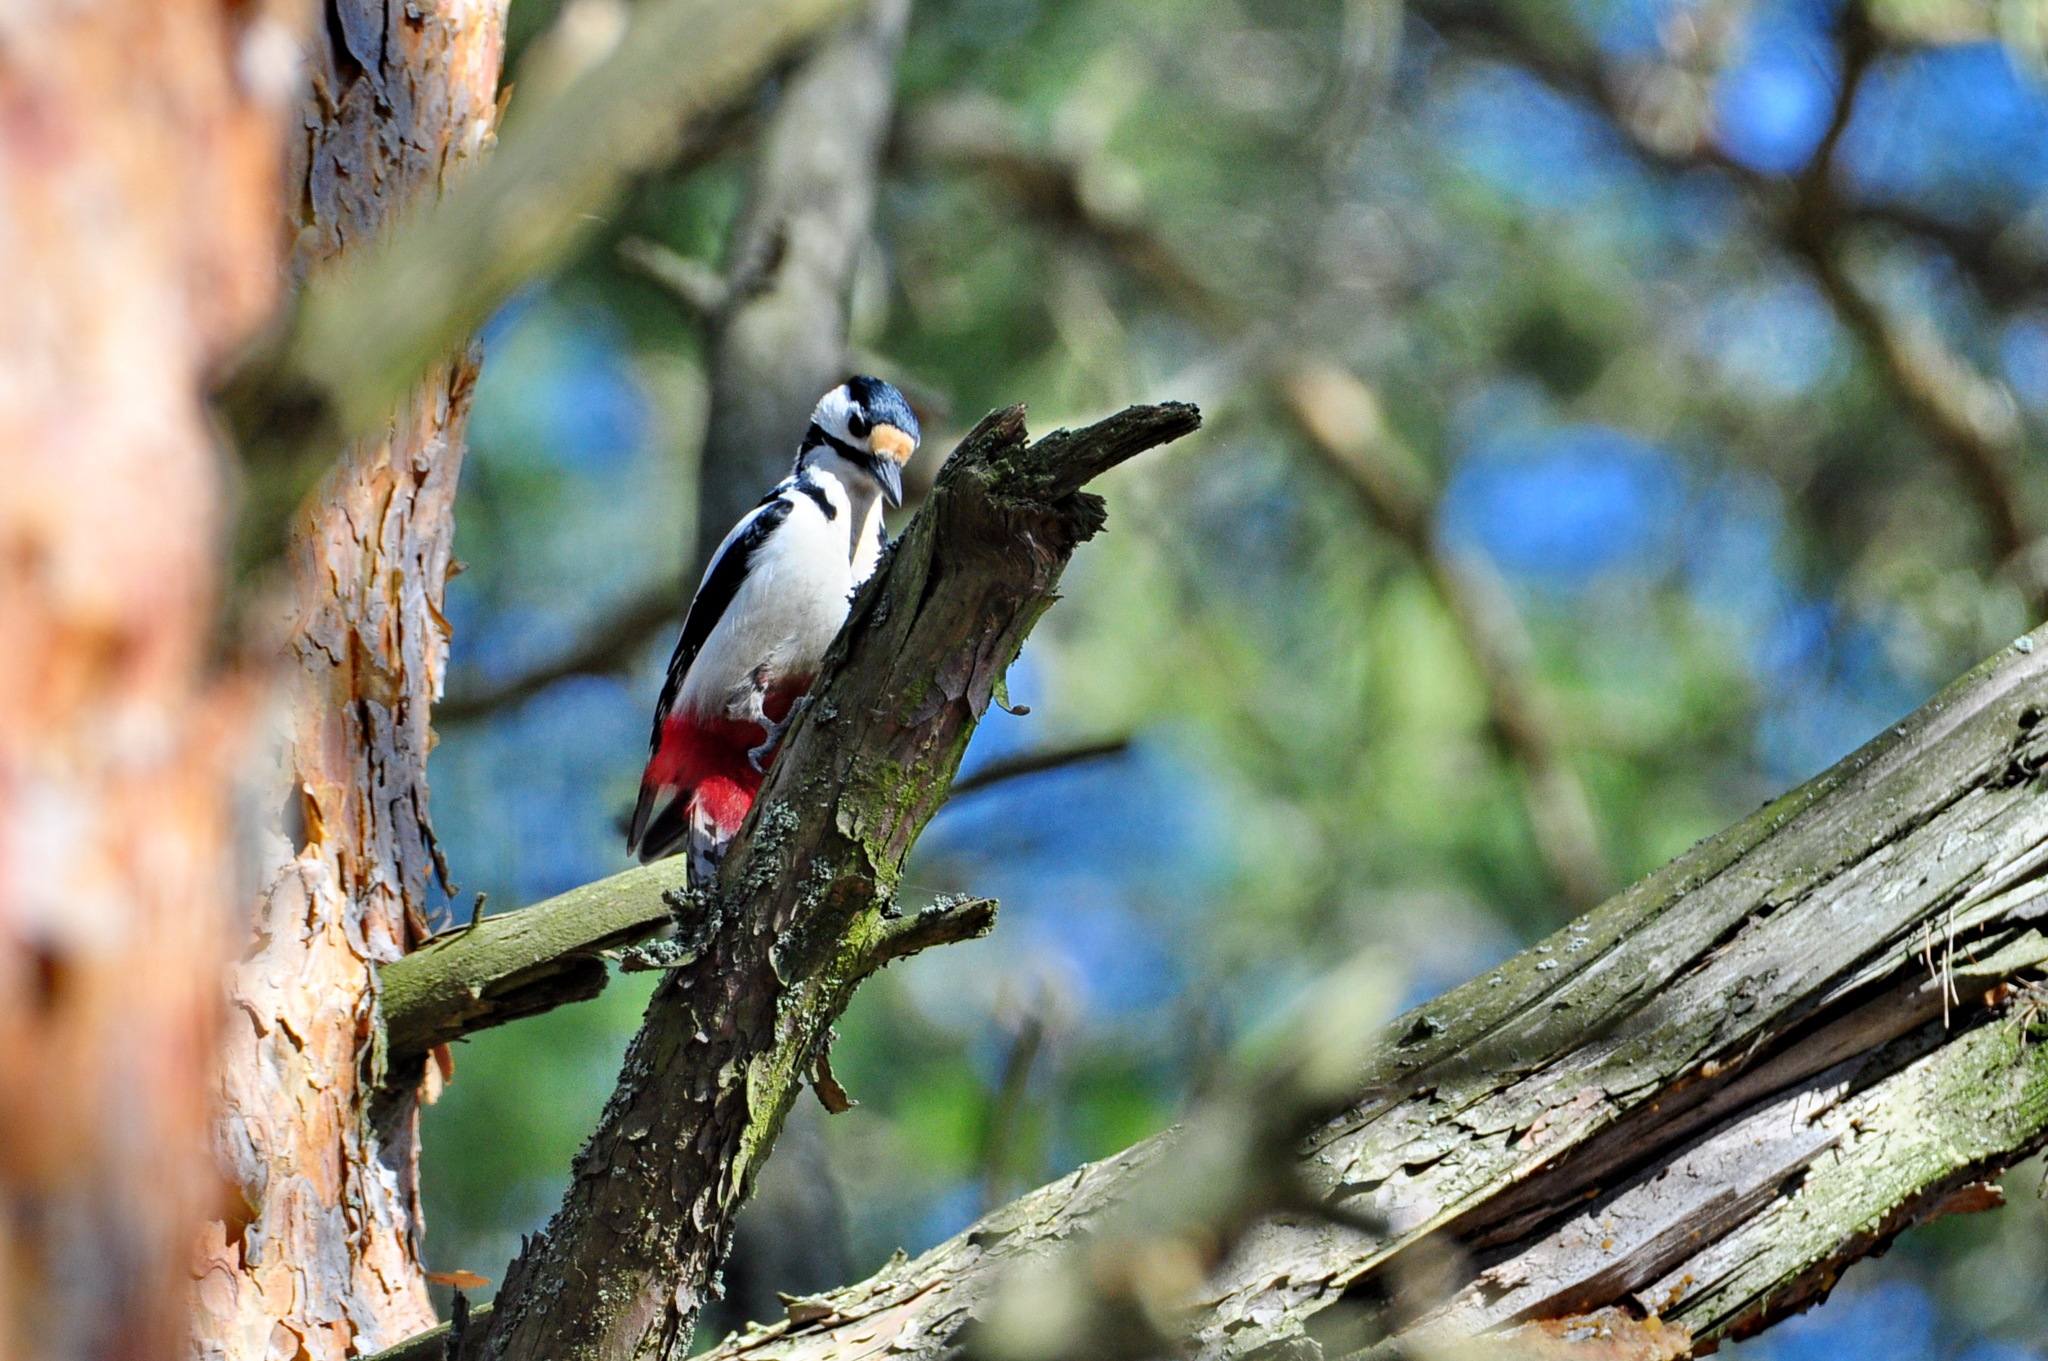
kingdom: Animalia
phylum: Chordata
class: Aves
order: Piciformes
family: Picidae
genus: Dendrocopos
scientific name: Dendrocopos major
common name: Great spotted woodpecker
